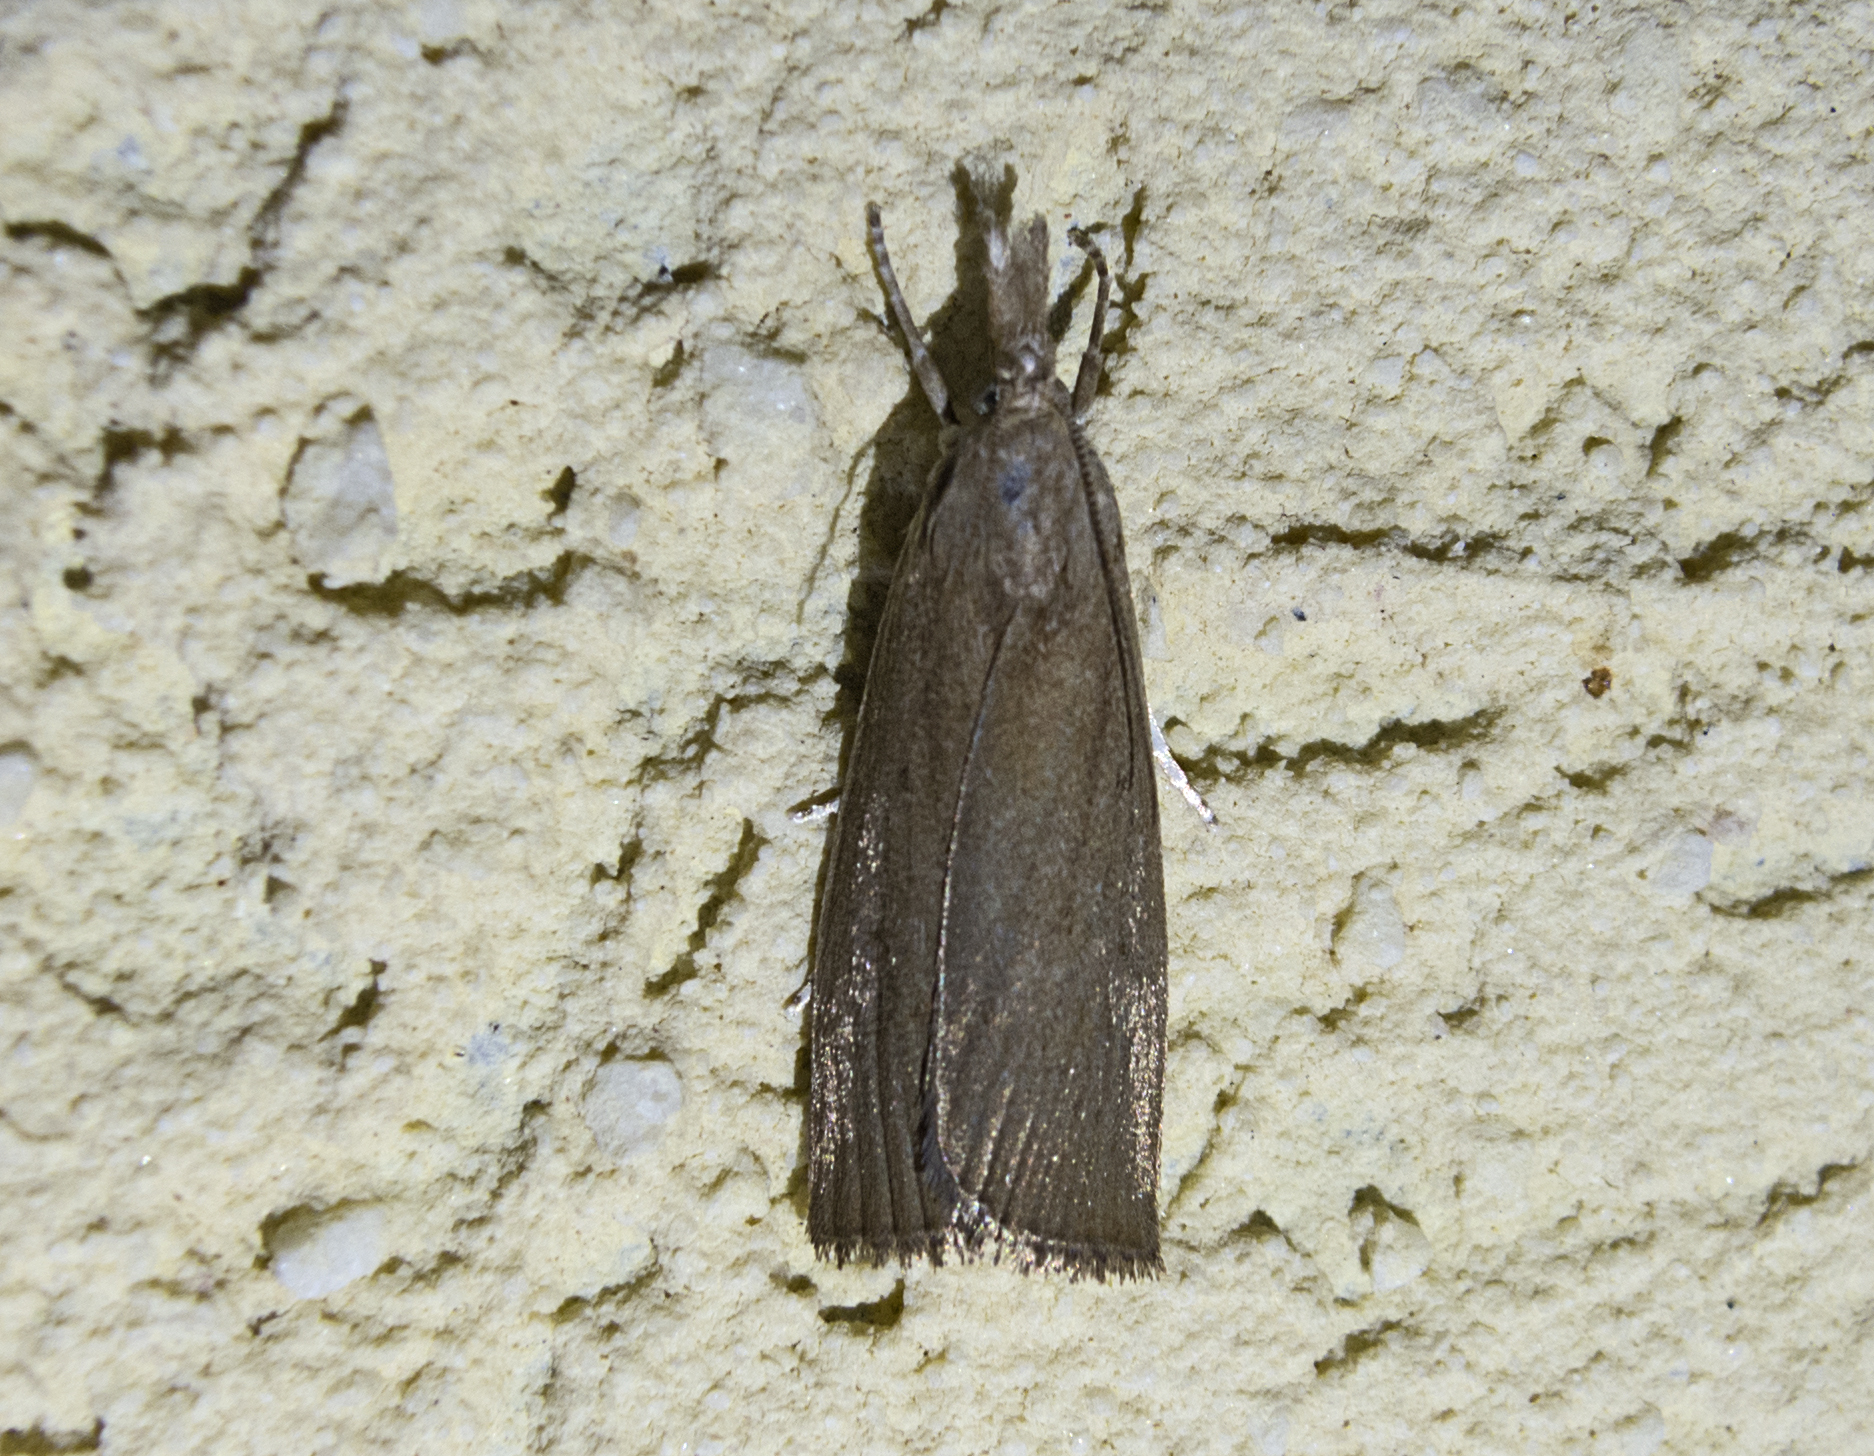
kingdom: Animalia
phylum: Arthropoda
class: Insecta
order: Lepidoptera
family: Crambidae
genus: Calamotropha
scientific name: Calamotropha paludella
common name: Bulrush veneer
